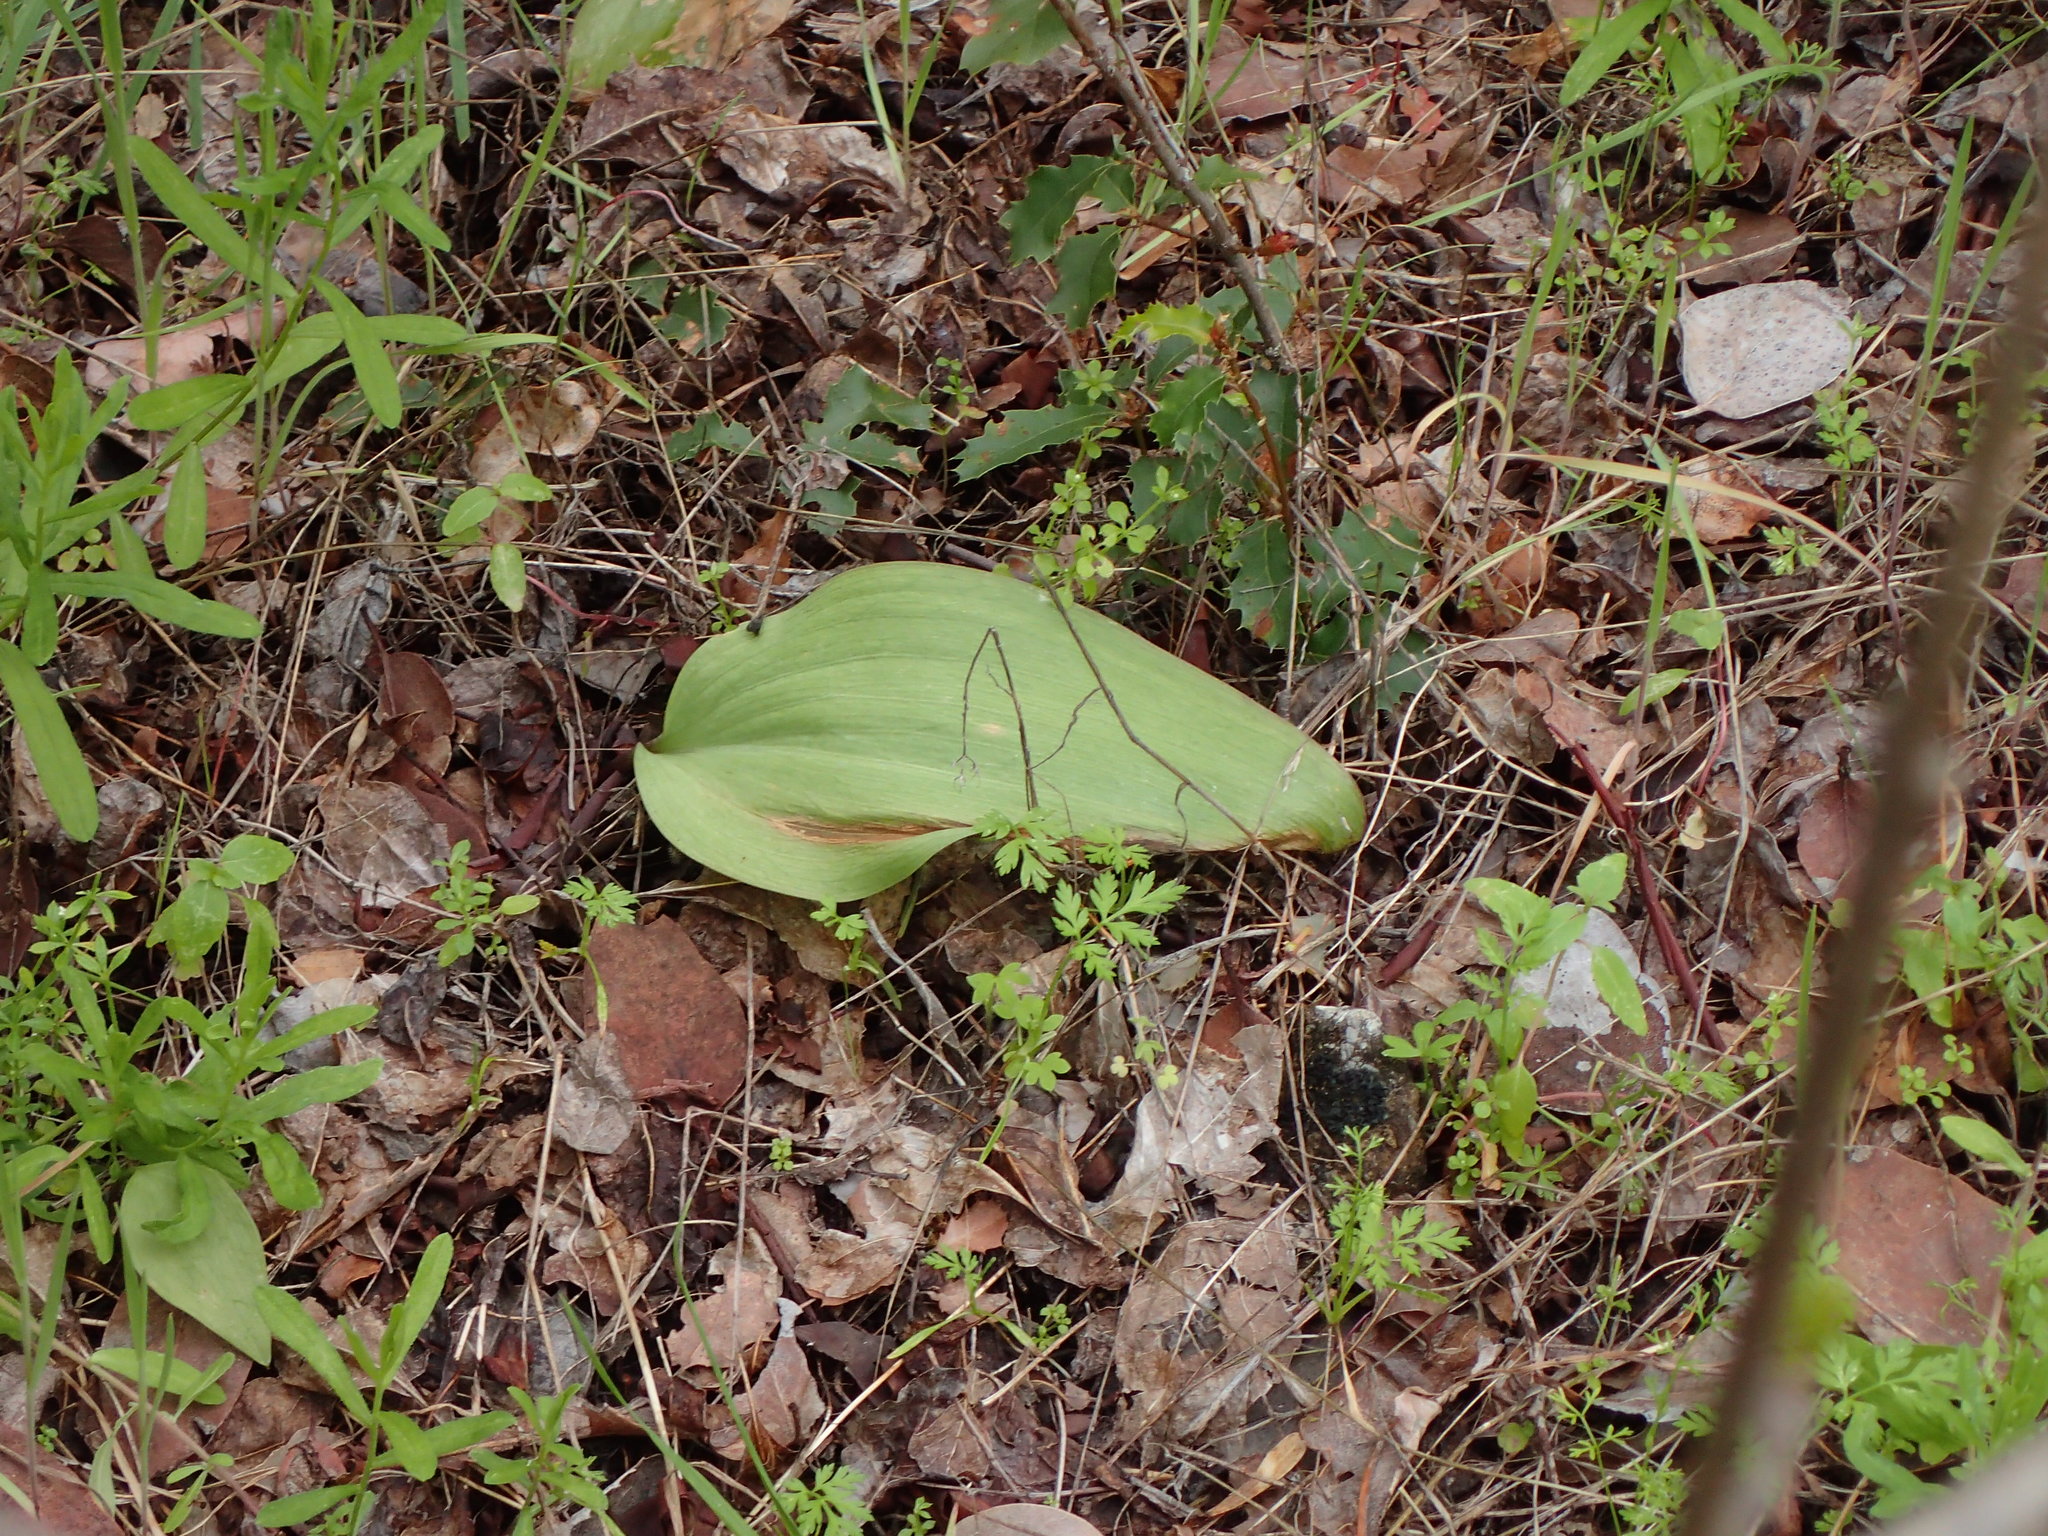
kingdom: Plantae
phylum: Tracheophyta
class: Liliopsida
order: Liliales
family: Liliaceae
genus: Fritillaria
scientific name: Fritillaria ojaiensis
